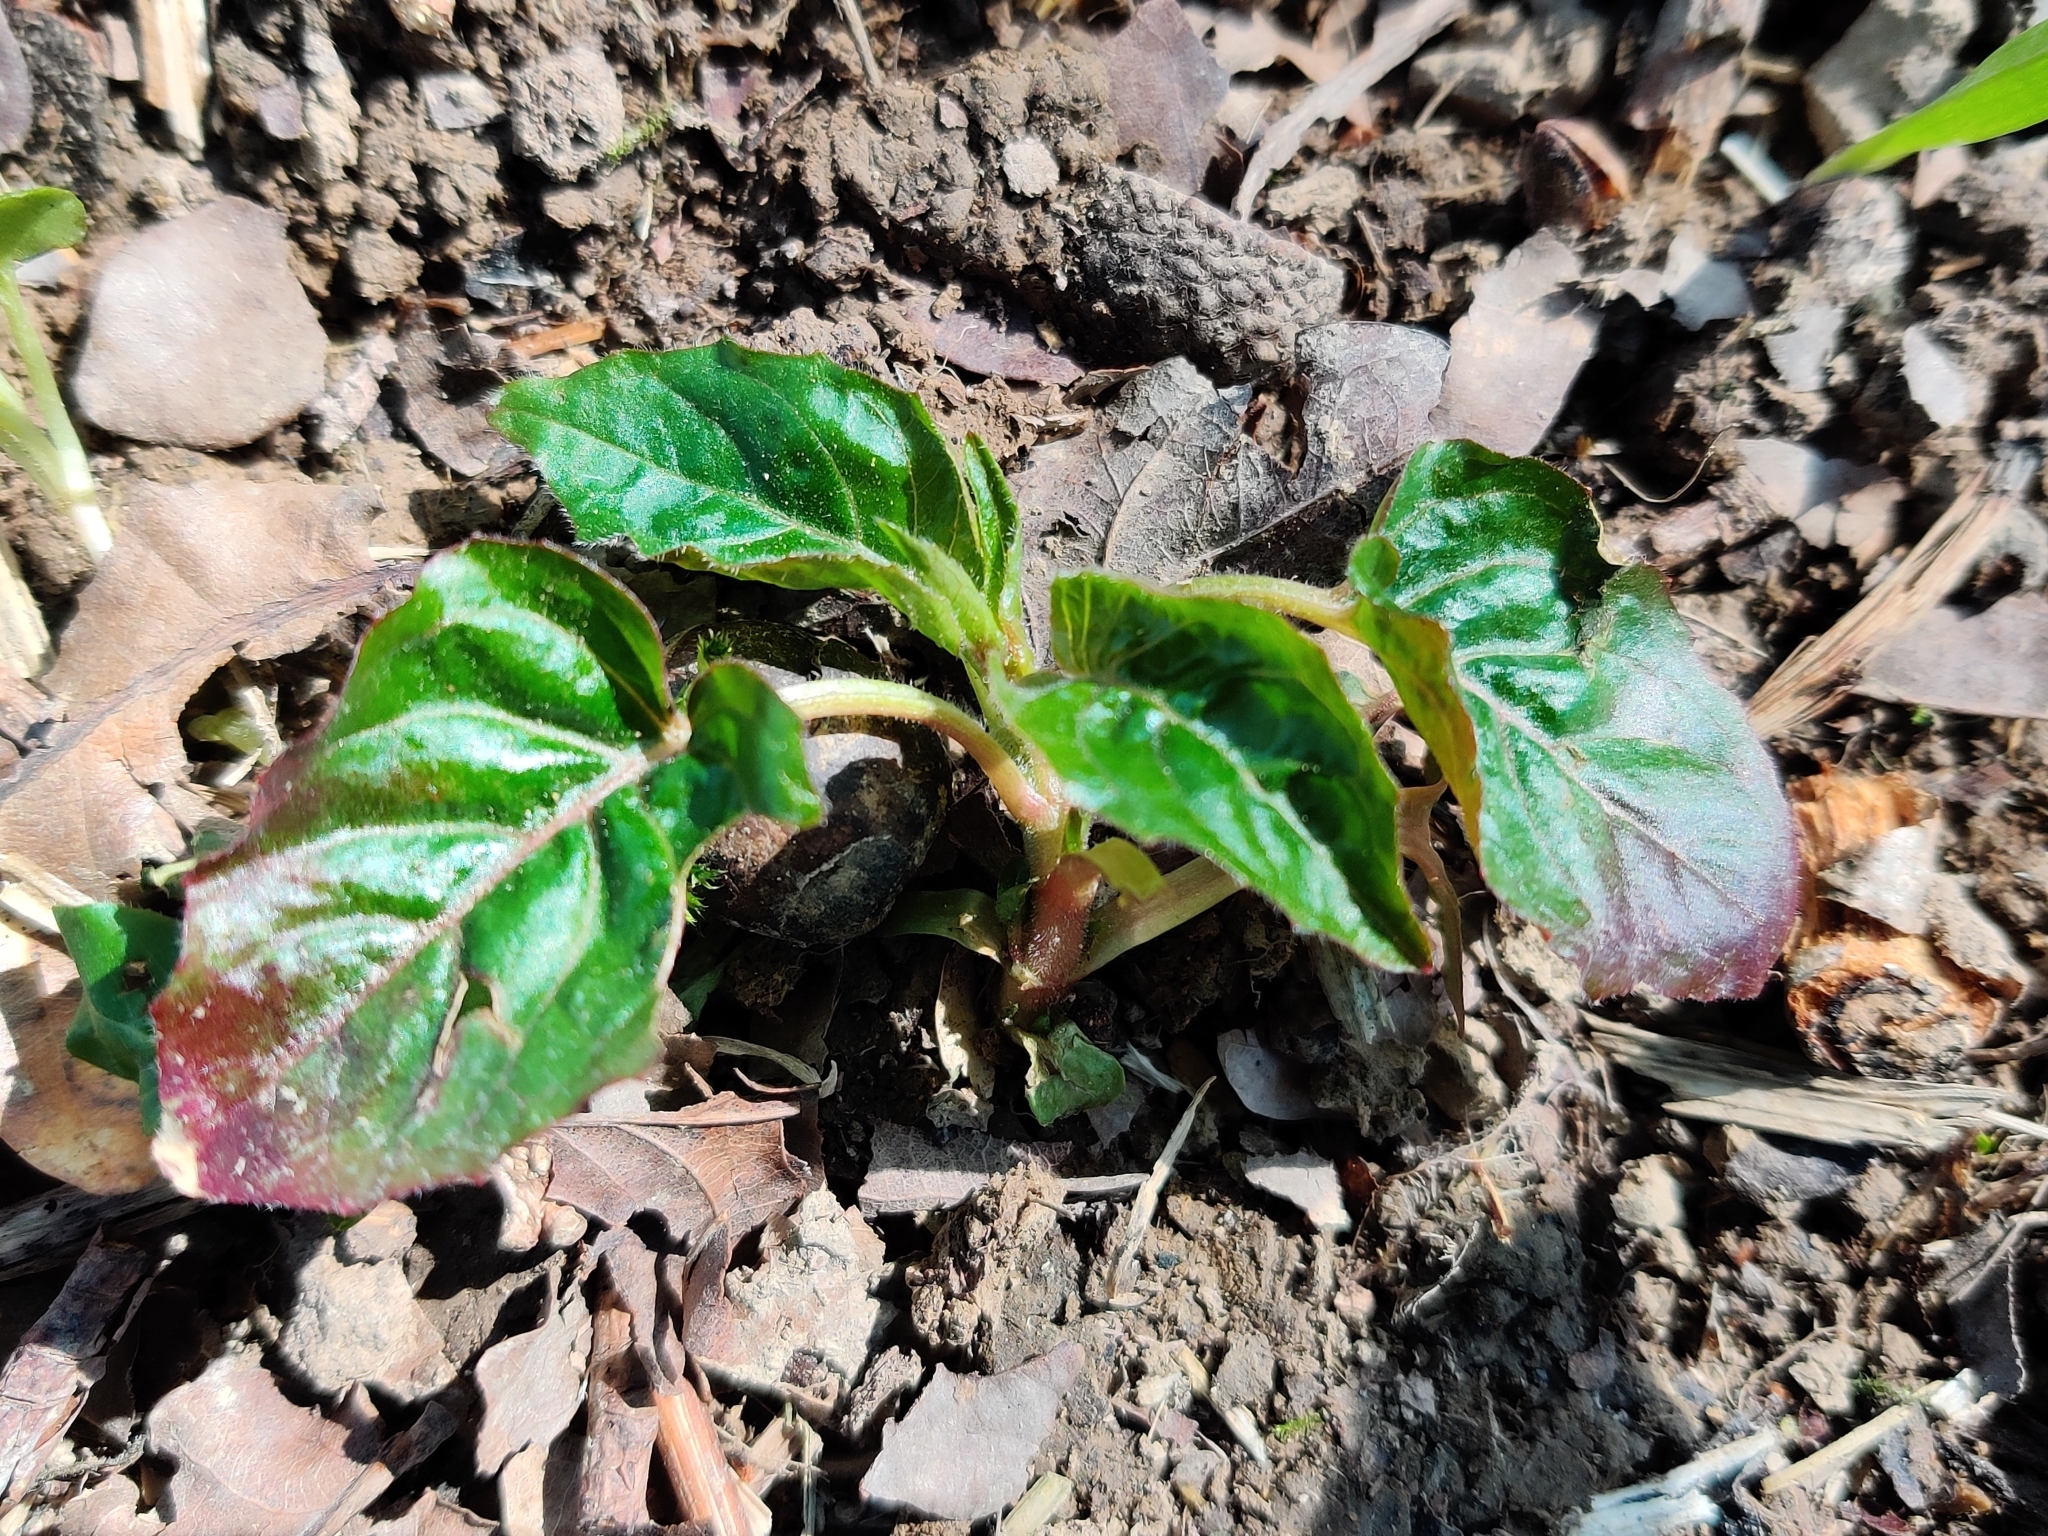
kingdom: Plantae
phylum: Tracheophyta
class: Magnoliopsida
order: Myrtales
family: Onagraceae
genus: Circaea
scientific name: Circaea lutetiana
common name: Enchanter's-nightshade
